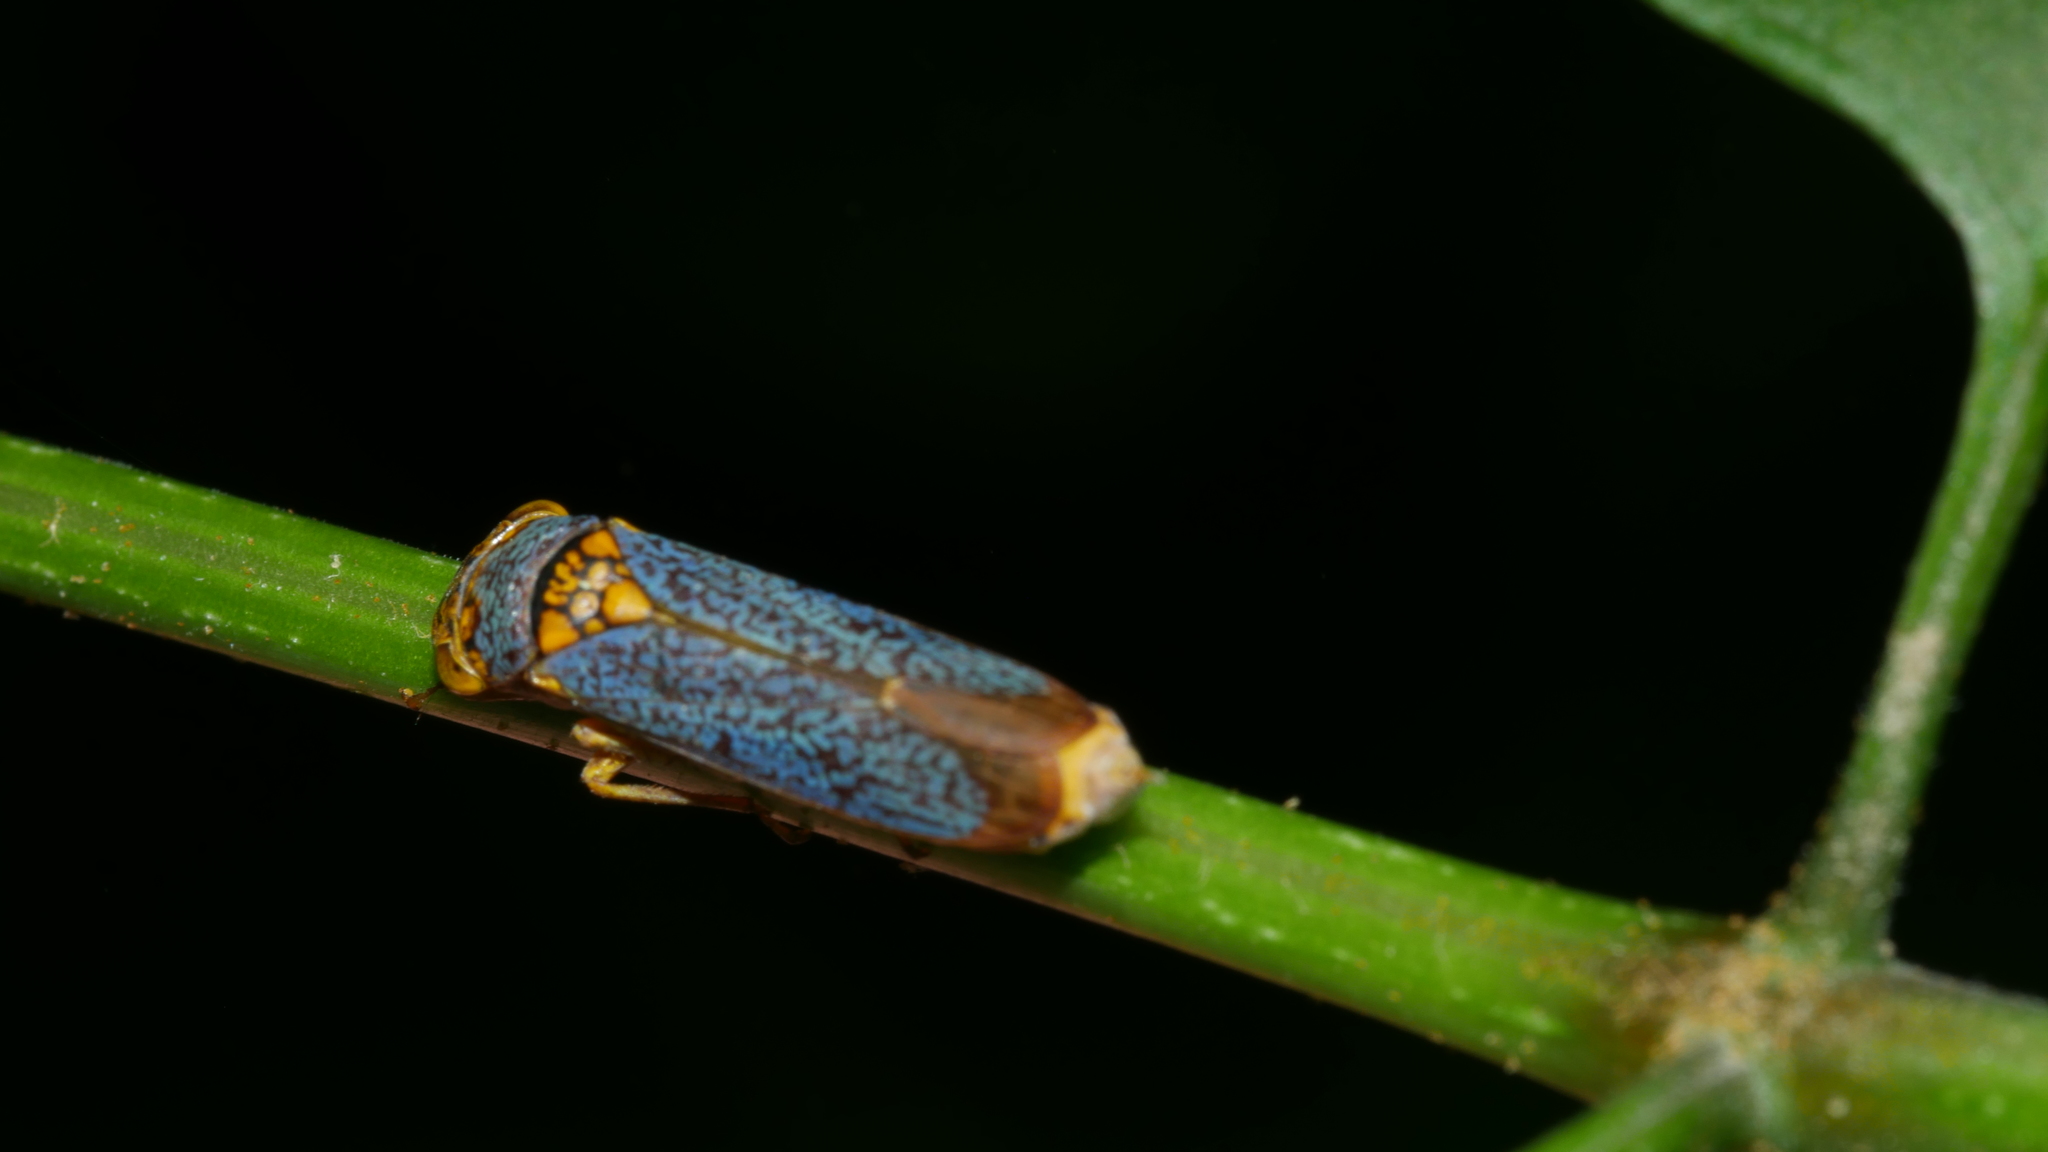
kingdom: Animalia
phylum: Arthropoda
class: Insecta
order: Hemiptera
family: Cicadellidae
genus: Oncometopia
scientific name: Oncometopia orbona
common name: Broad-headed sharpshooter
